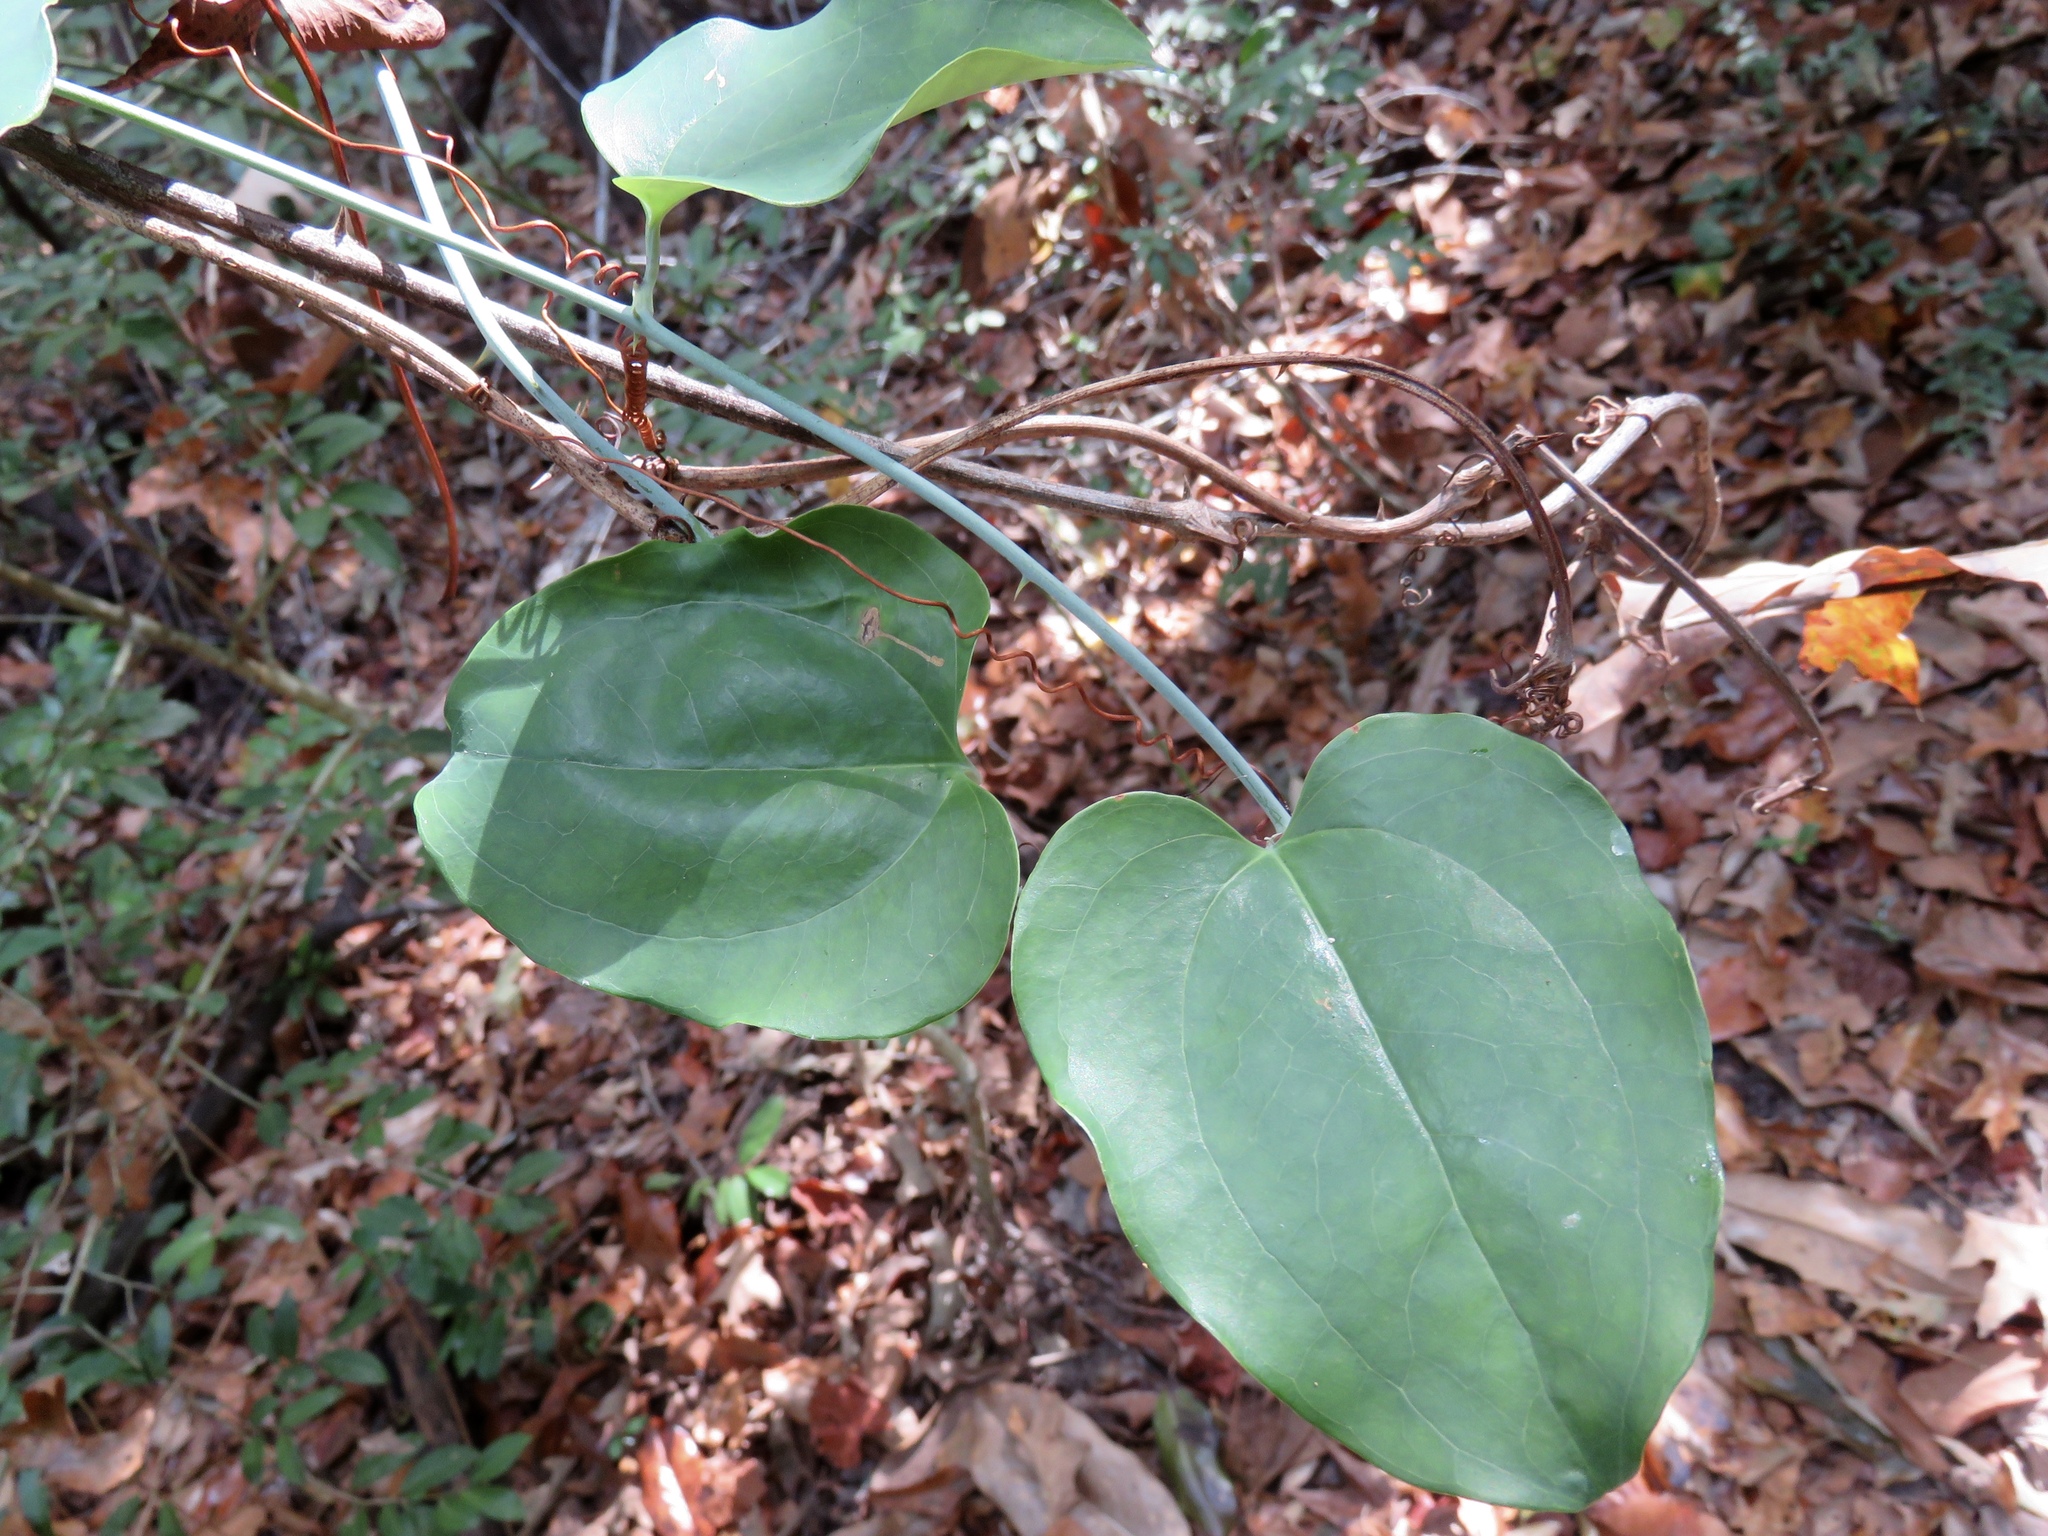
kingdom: Plantae
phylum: Tracheophyta
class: Liliopsida
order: Liliales
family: Smilacaceae
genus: Smilax
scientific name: Smilax glauca
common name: Cat greenbrier
